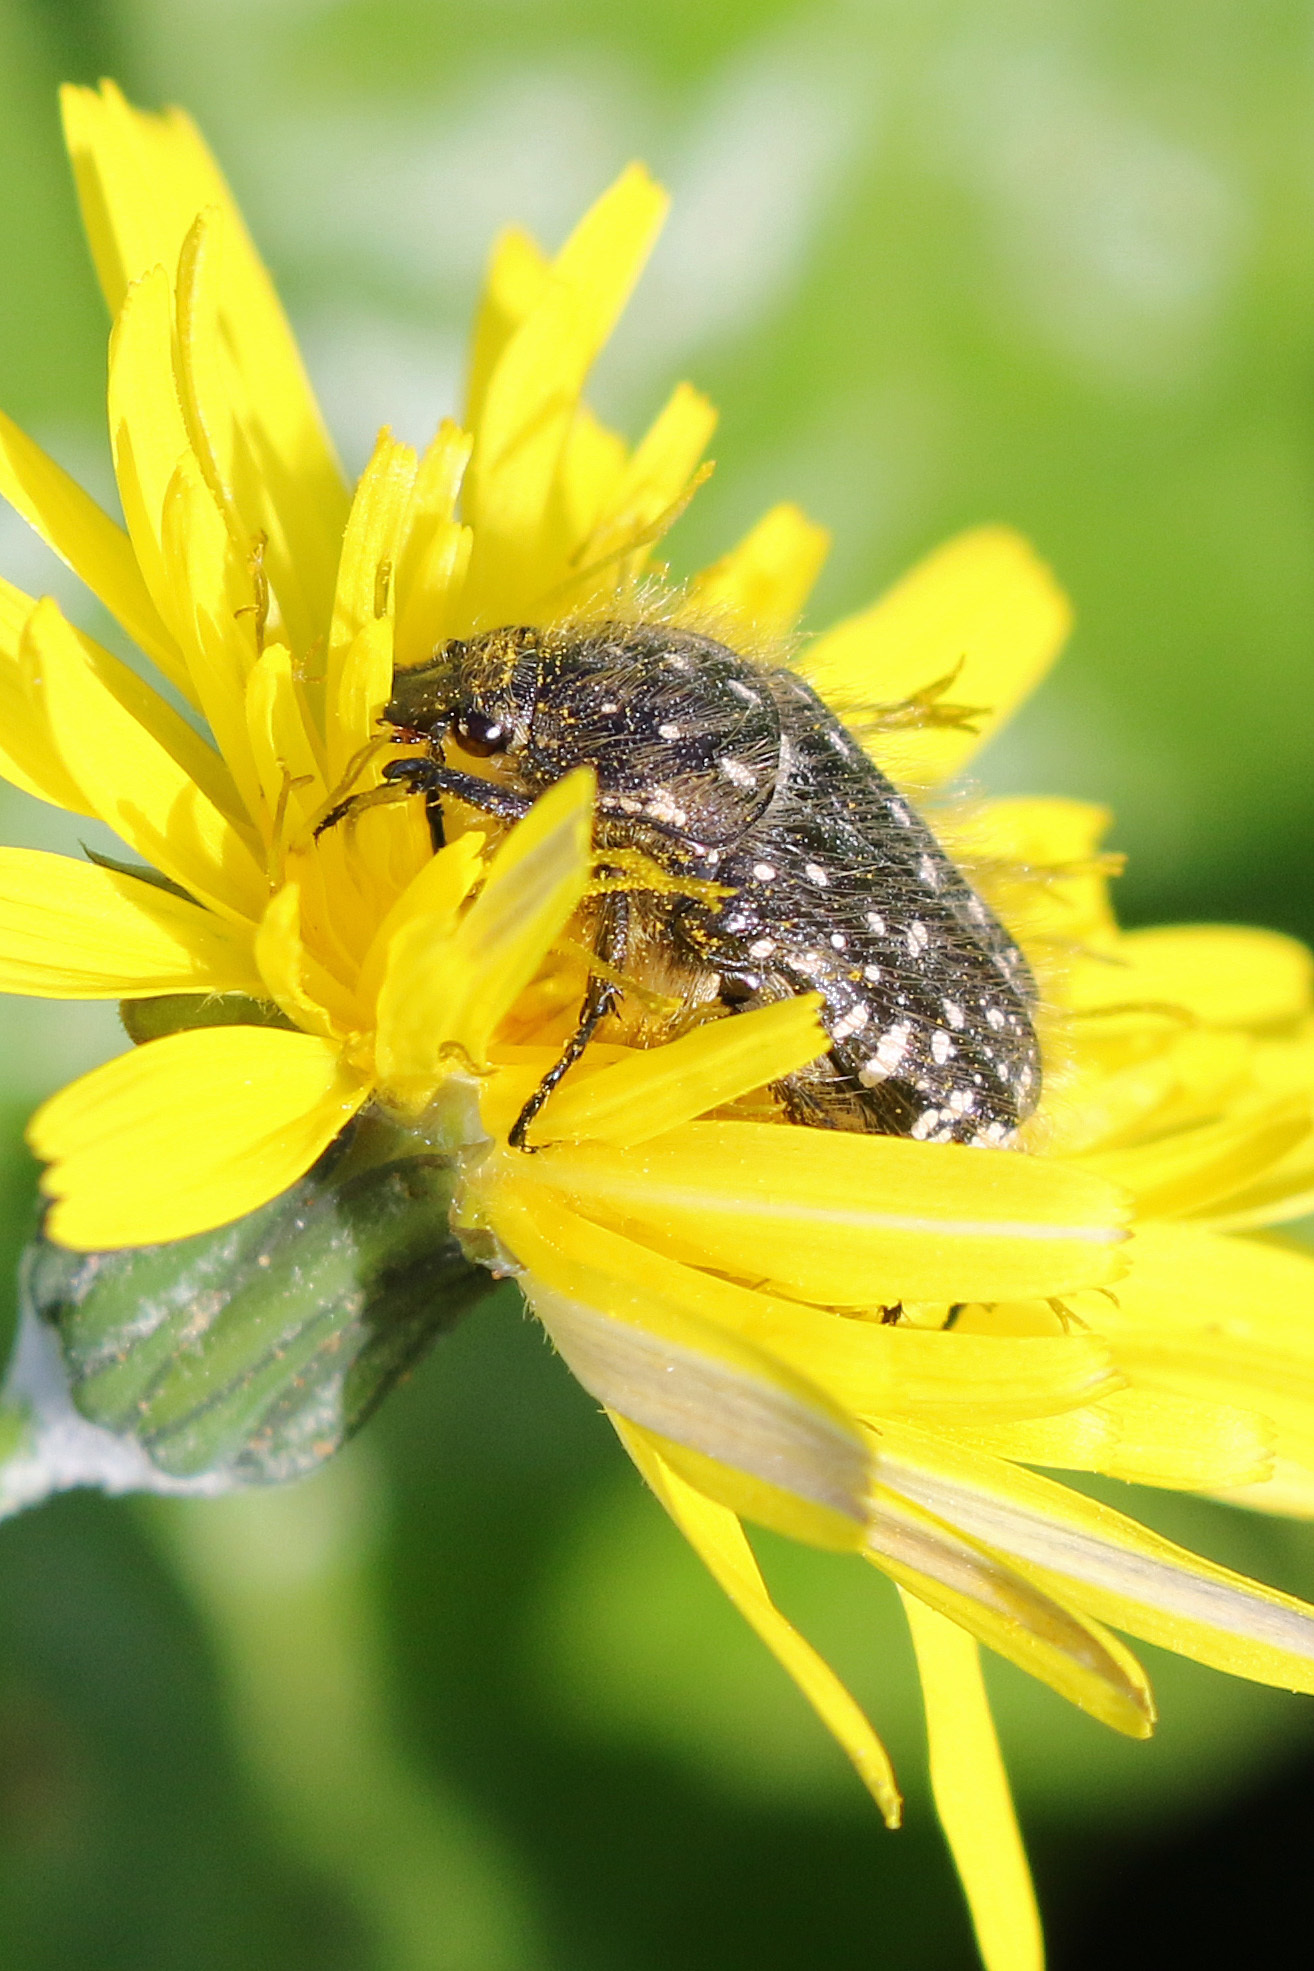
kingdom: Animalia
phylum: Arthropoda
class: Insecta
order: Coleoptera
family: Scarabaeidae
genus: Oxythyrea
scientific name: Oxythyrea funesta
